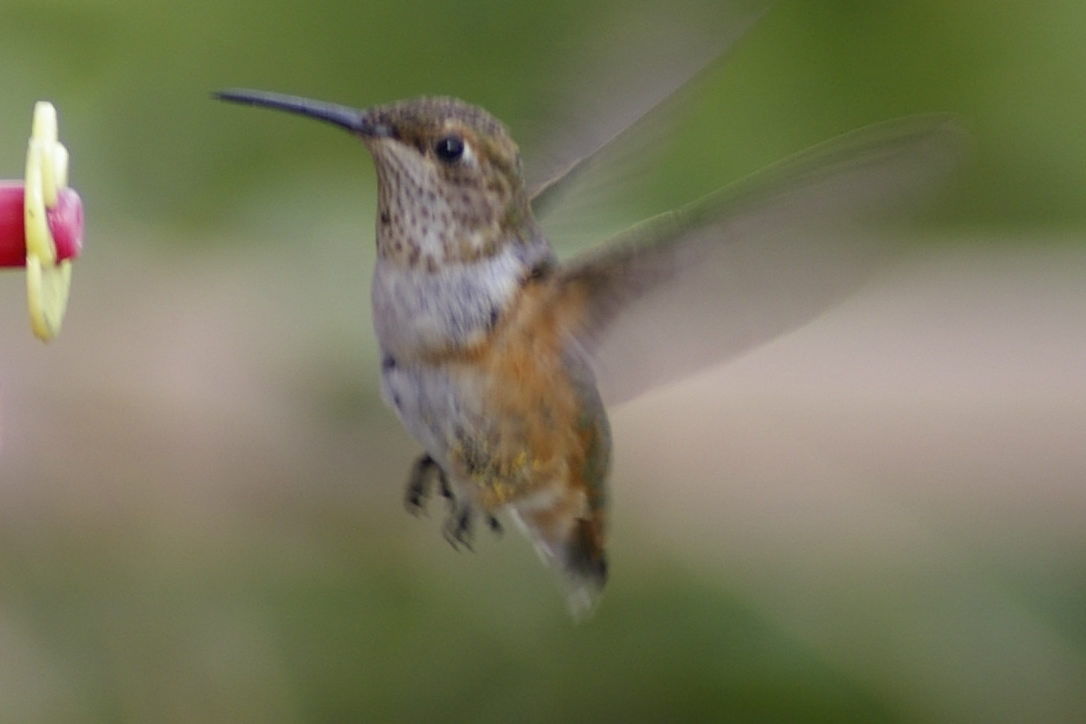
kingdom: Animalia
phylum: Chordata
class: Aves
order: Apodiformes
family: Trochilidae
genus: Selasphorus
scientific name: Selasphorus
